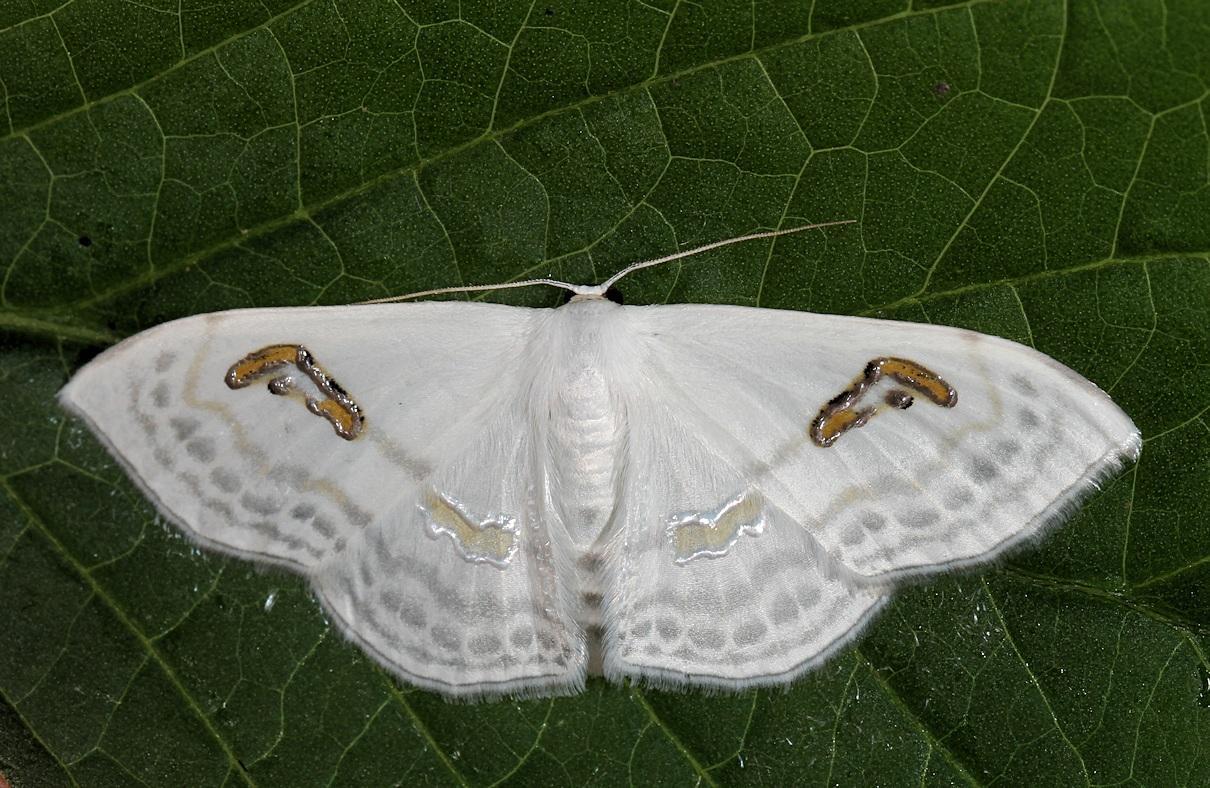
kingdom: Animalia
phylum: Arthropoda
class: Insecta
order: Lepidoptera
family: Geometridae
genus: Problepsis
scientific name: Problepsis digammata
